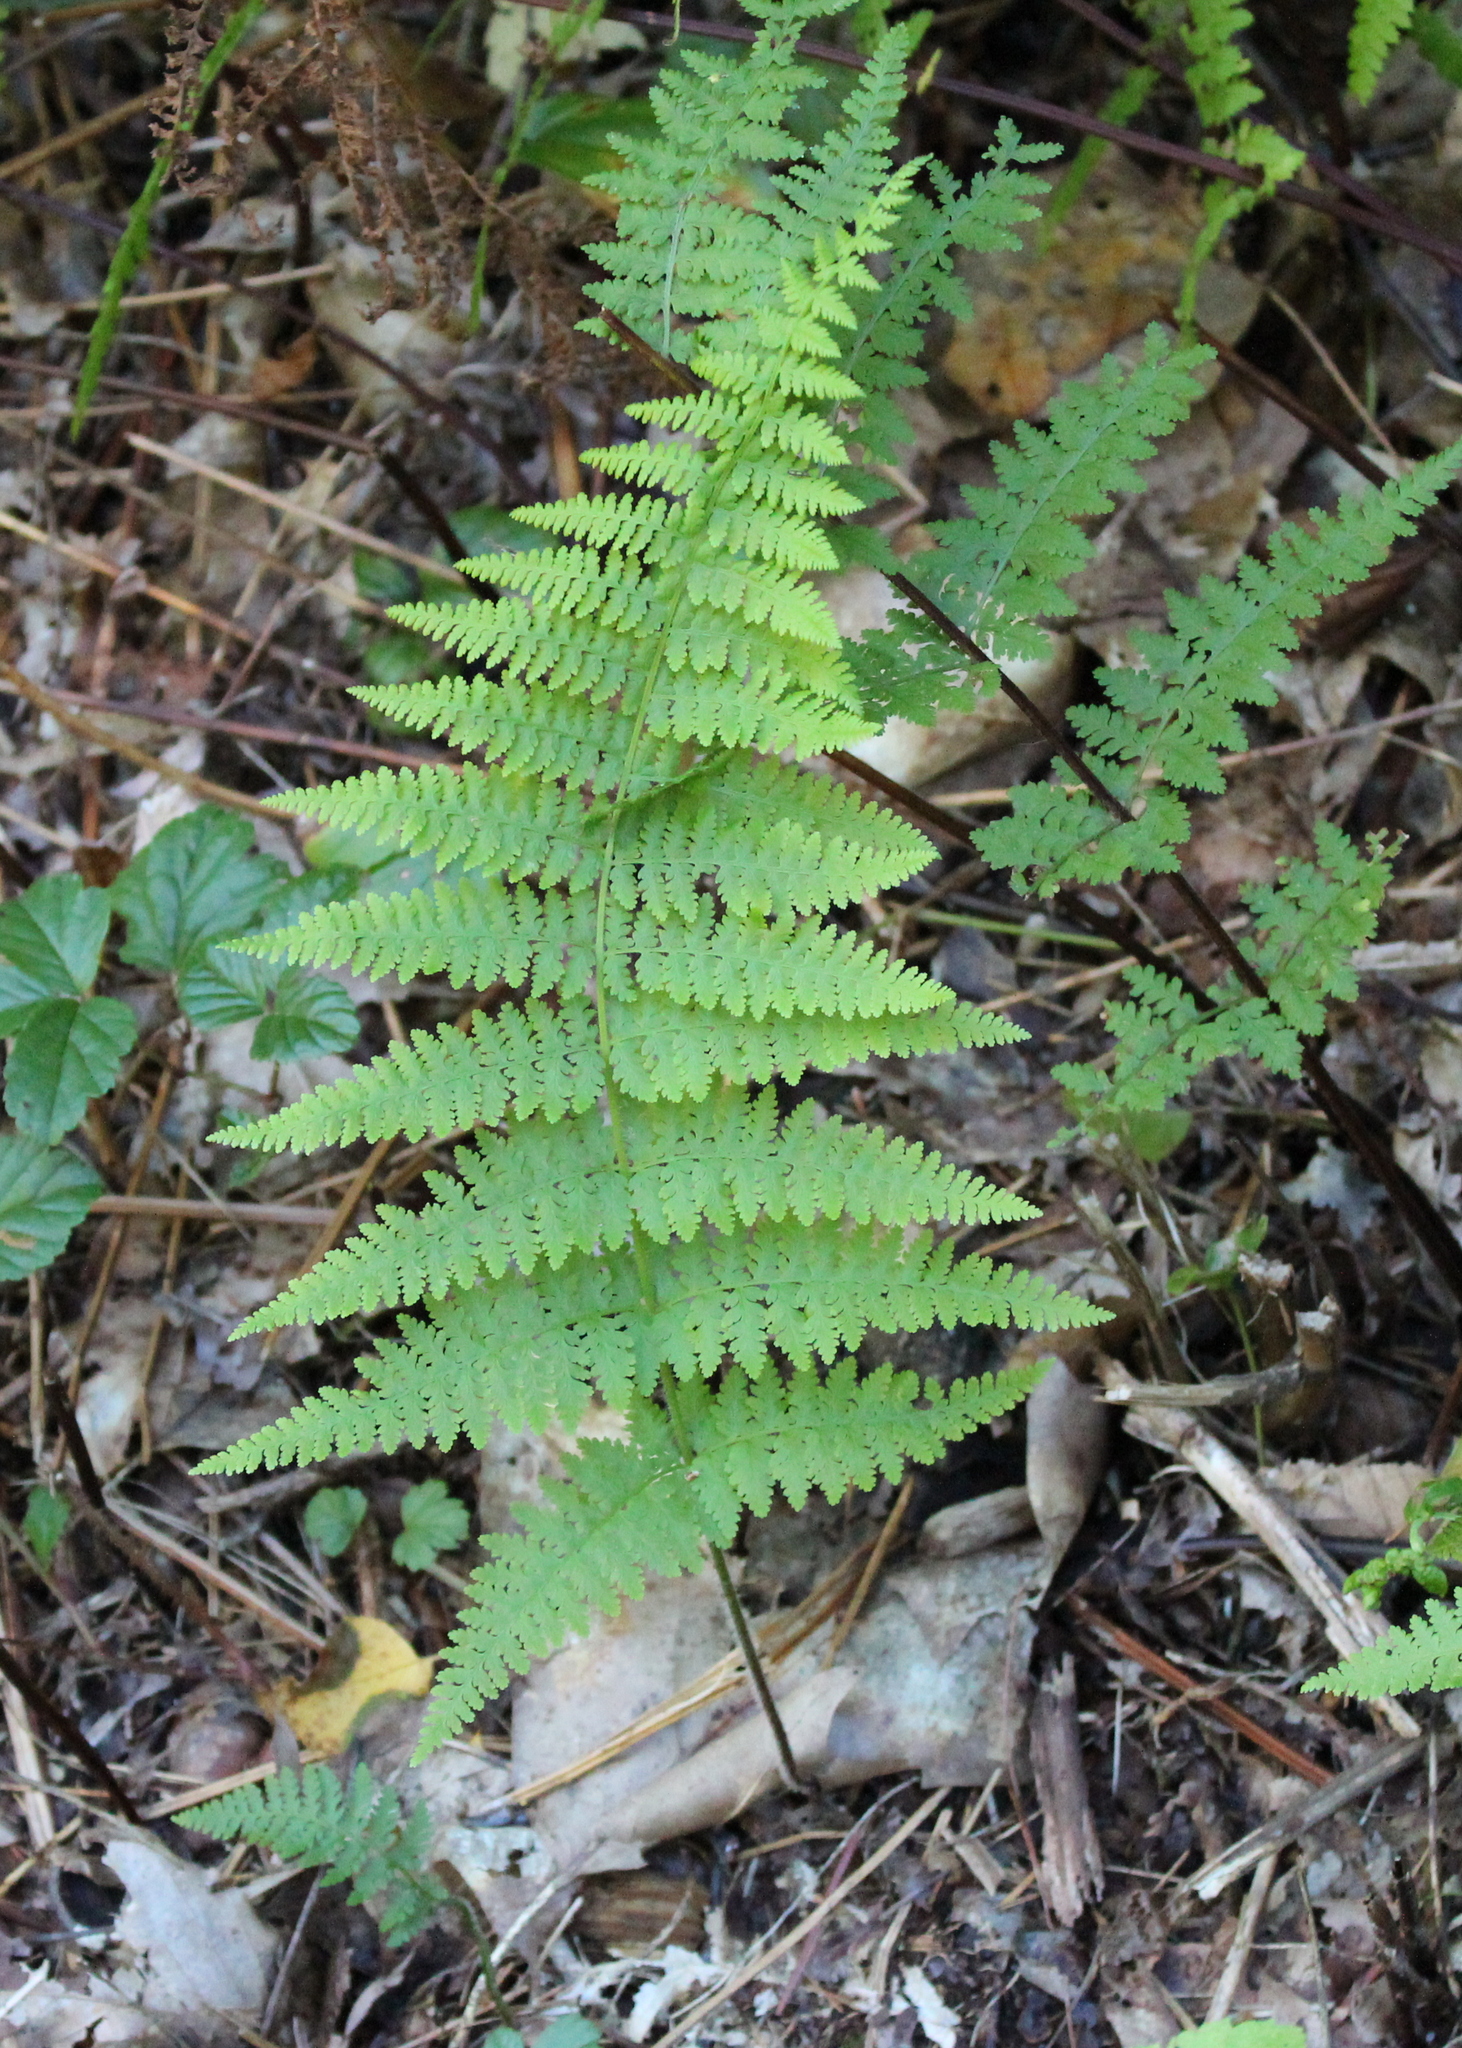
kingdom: Plantae
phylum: Tracheophyta
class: Polypodiopsida
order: Polypodiales
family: Dennstaedtiaceae
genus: Sitobolium
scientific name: Sitobolium punctilobum
